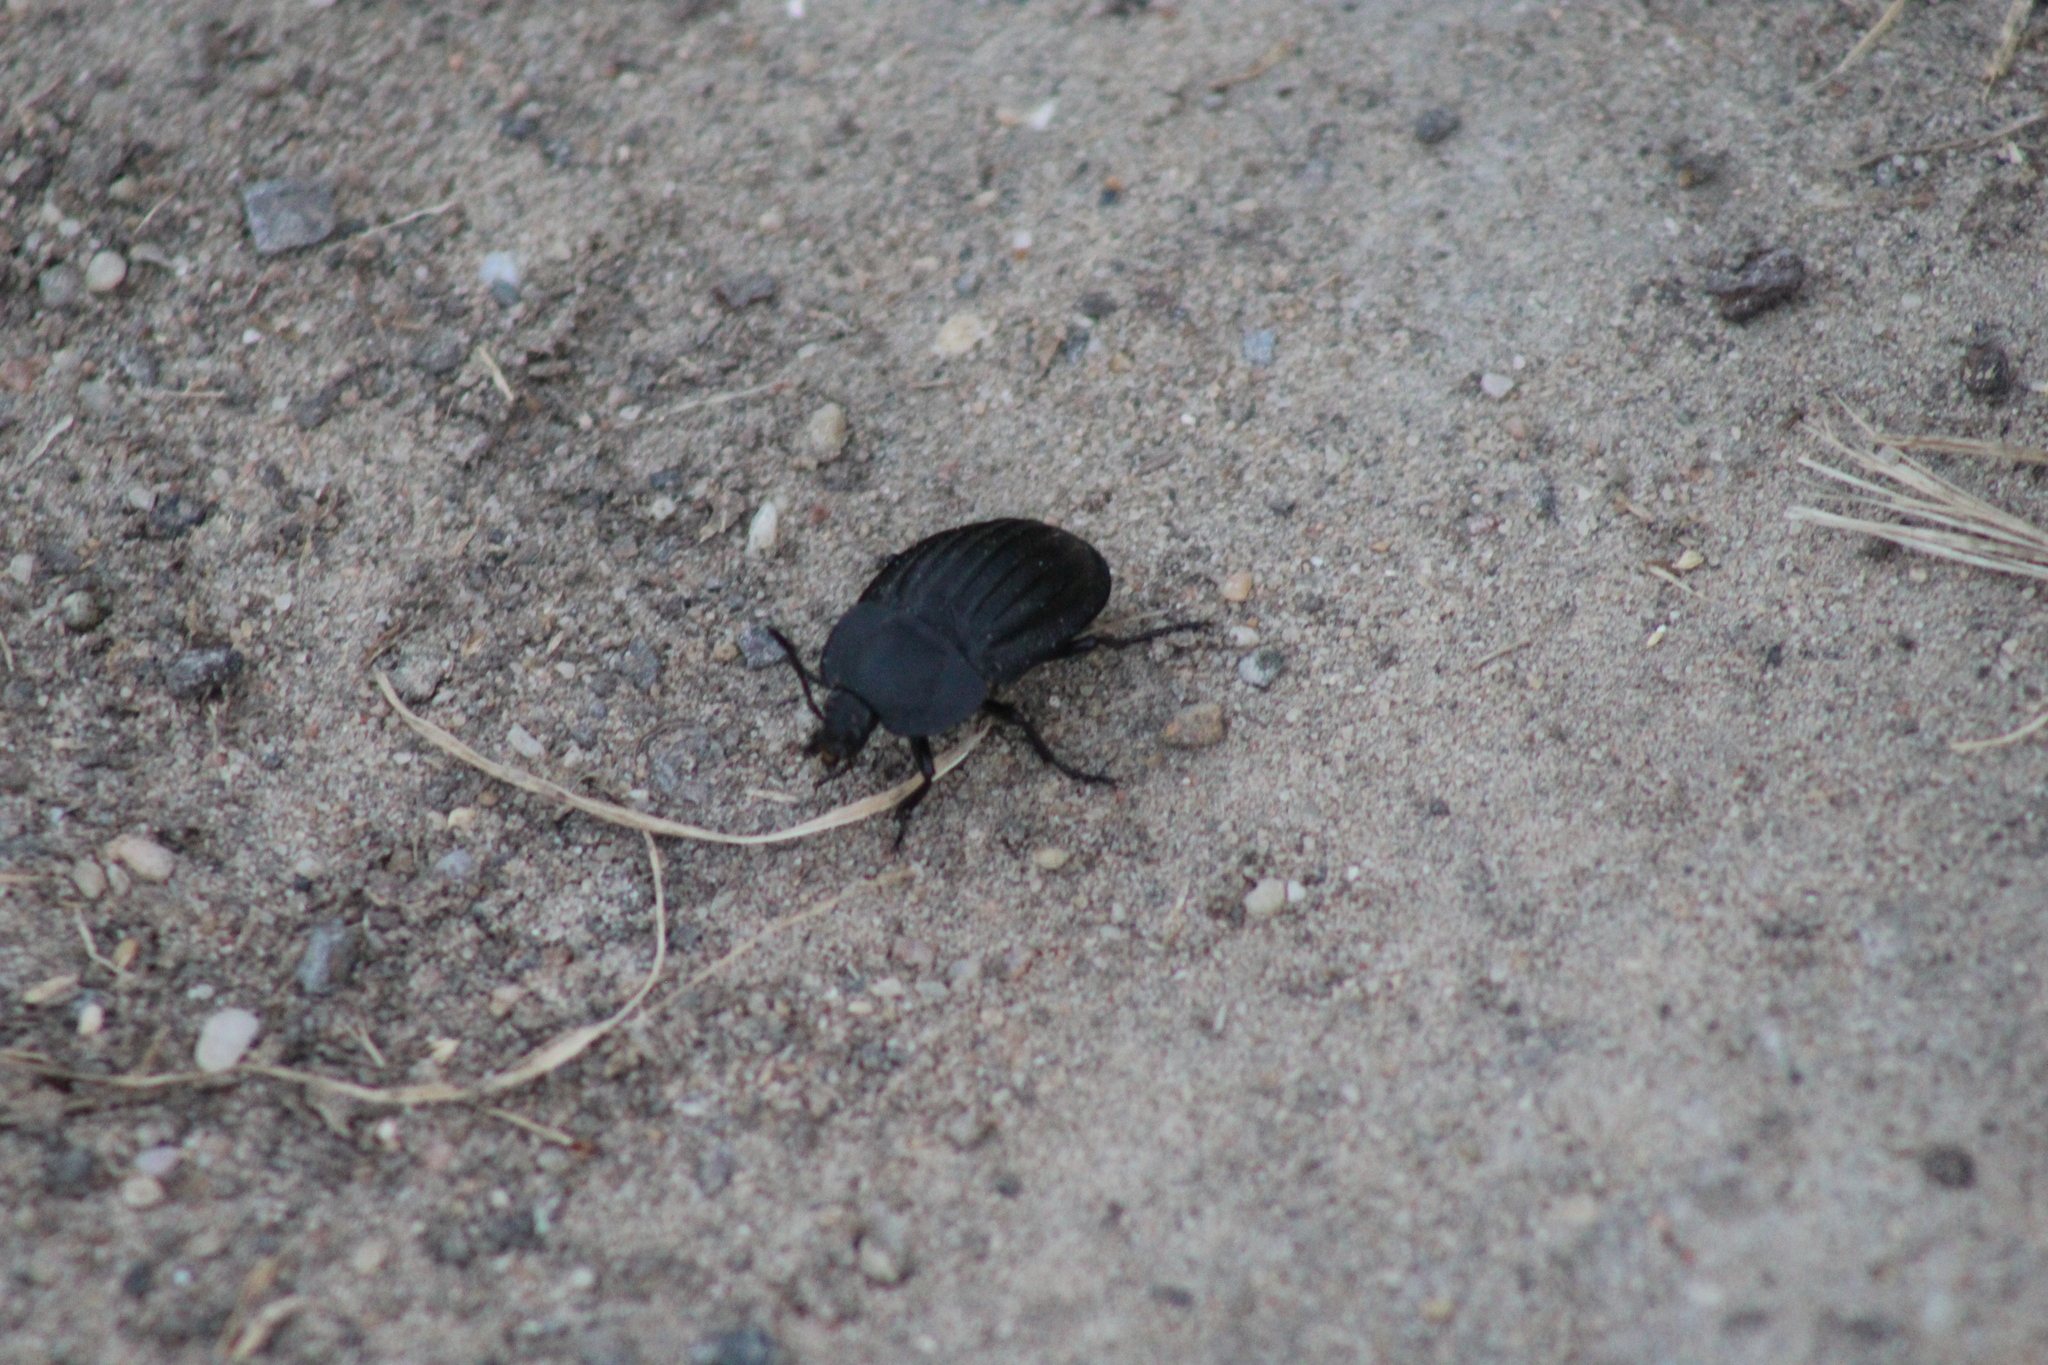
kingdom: Animalia
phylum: Arthropoda
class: Insecta
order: Coleoptera
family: Staphylinidae
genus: Silpha
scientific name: Silpha capicola
